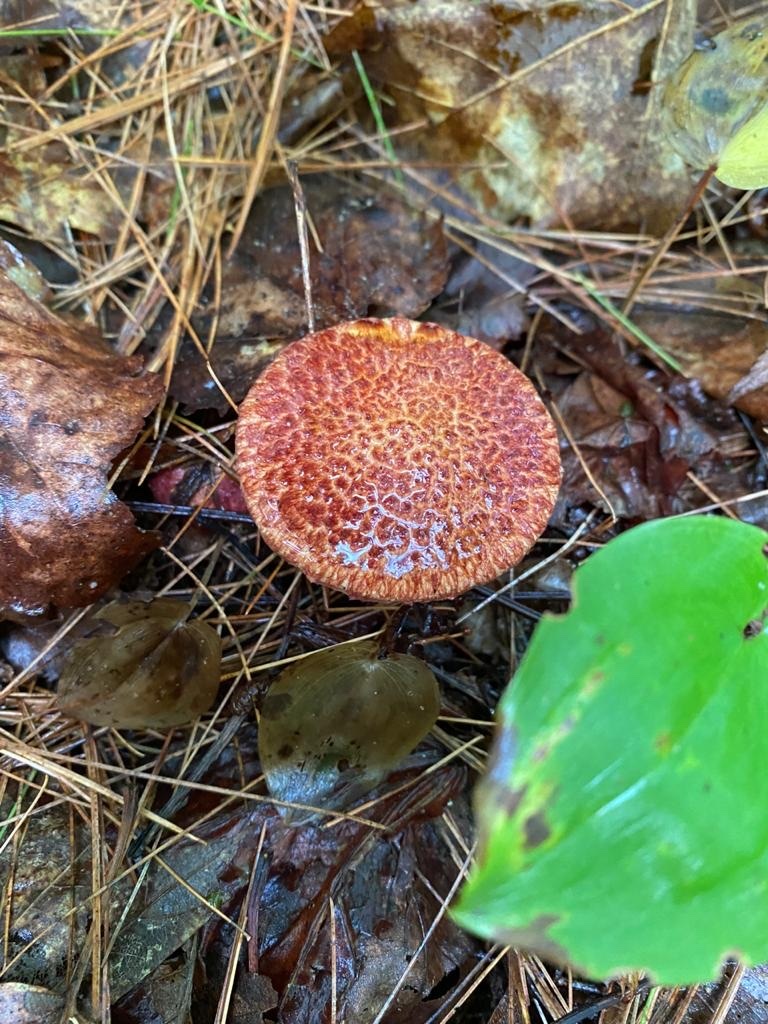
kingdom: Fungi
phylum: Basidiomycota
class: Agaricomycetes
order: Boletales
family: Suillaceae
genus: Suillus
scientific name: Suillus spraguei
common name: Painted suillus
